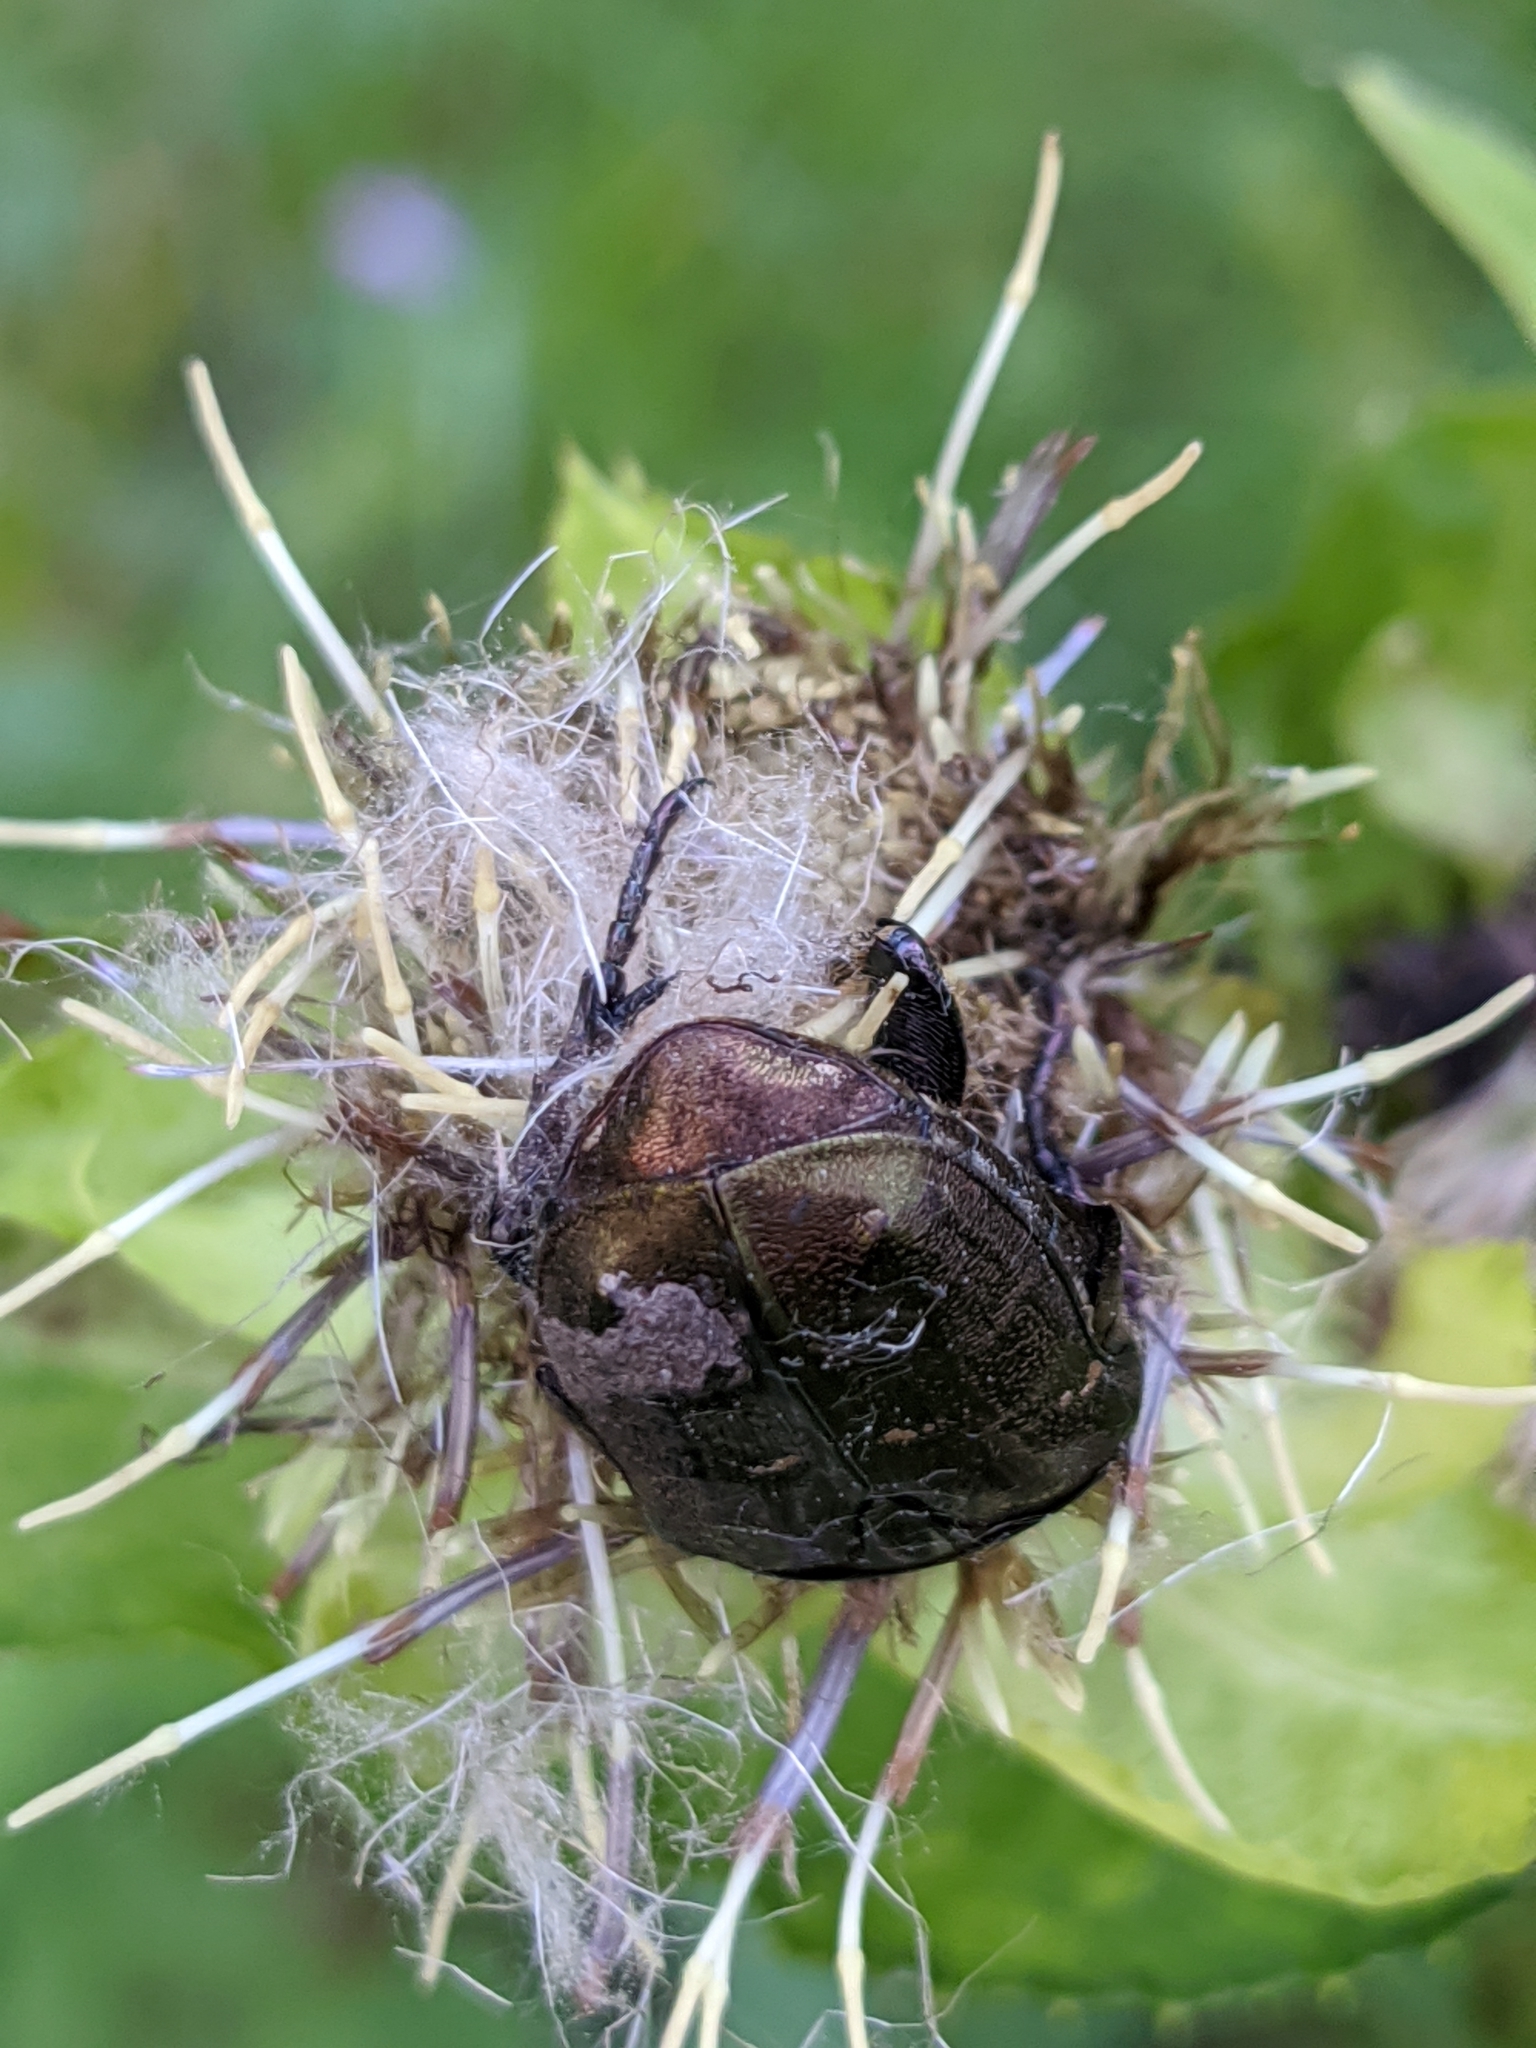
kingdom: Animalia
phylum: Arthropoda
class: Insecta
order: Coleoptera
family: Scarabaeidae
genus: Protaetia
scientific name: Protaetia cuprea
